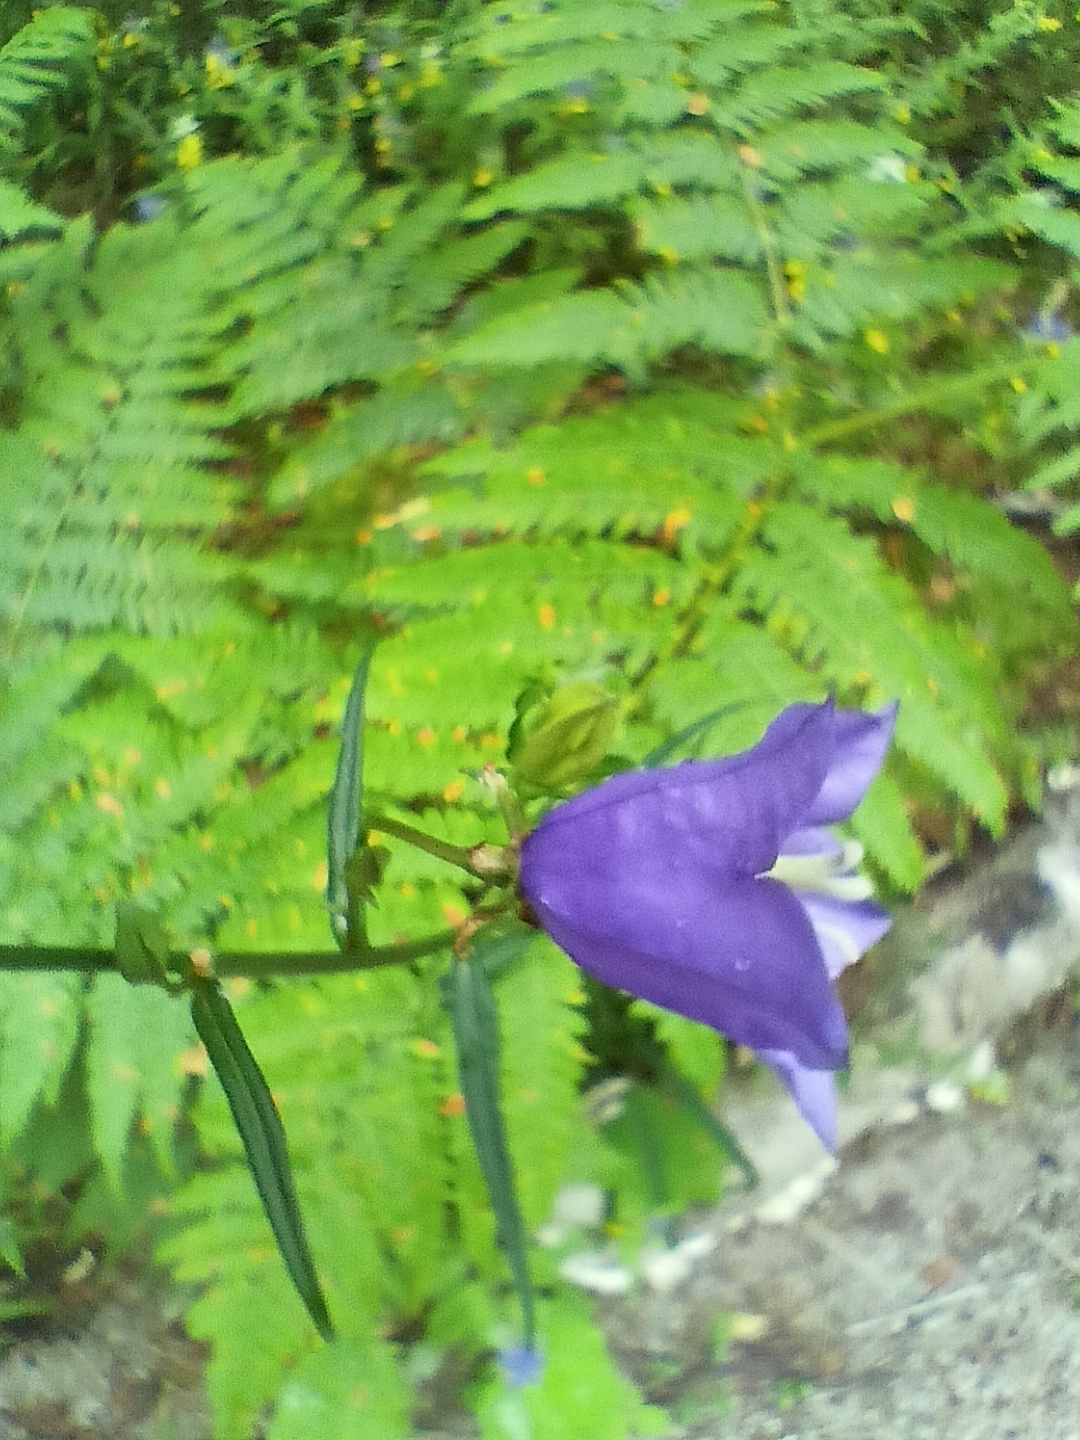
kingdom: Plantae
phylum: Tracheophyta
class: Magnoliopsida
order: Asterales
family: Campanulaceae
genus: Campanula
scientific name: Campanula persicifolia
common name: Peach-leaved bellflower
